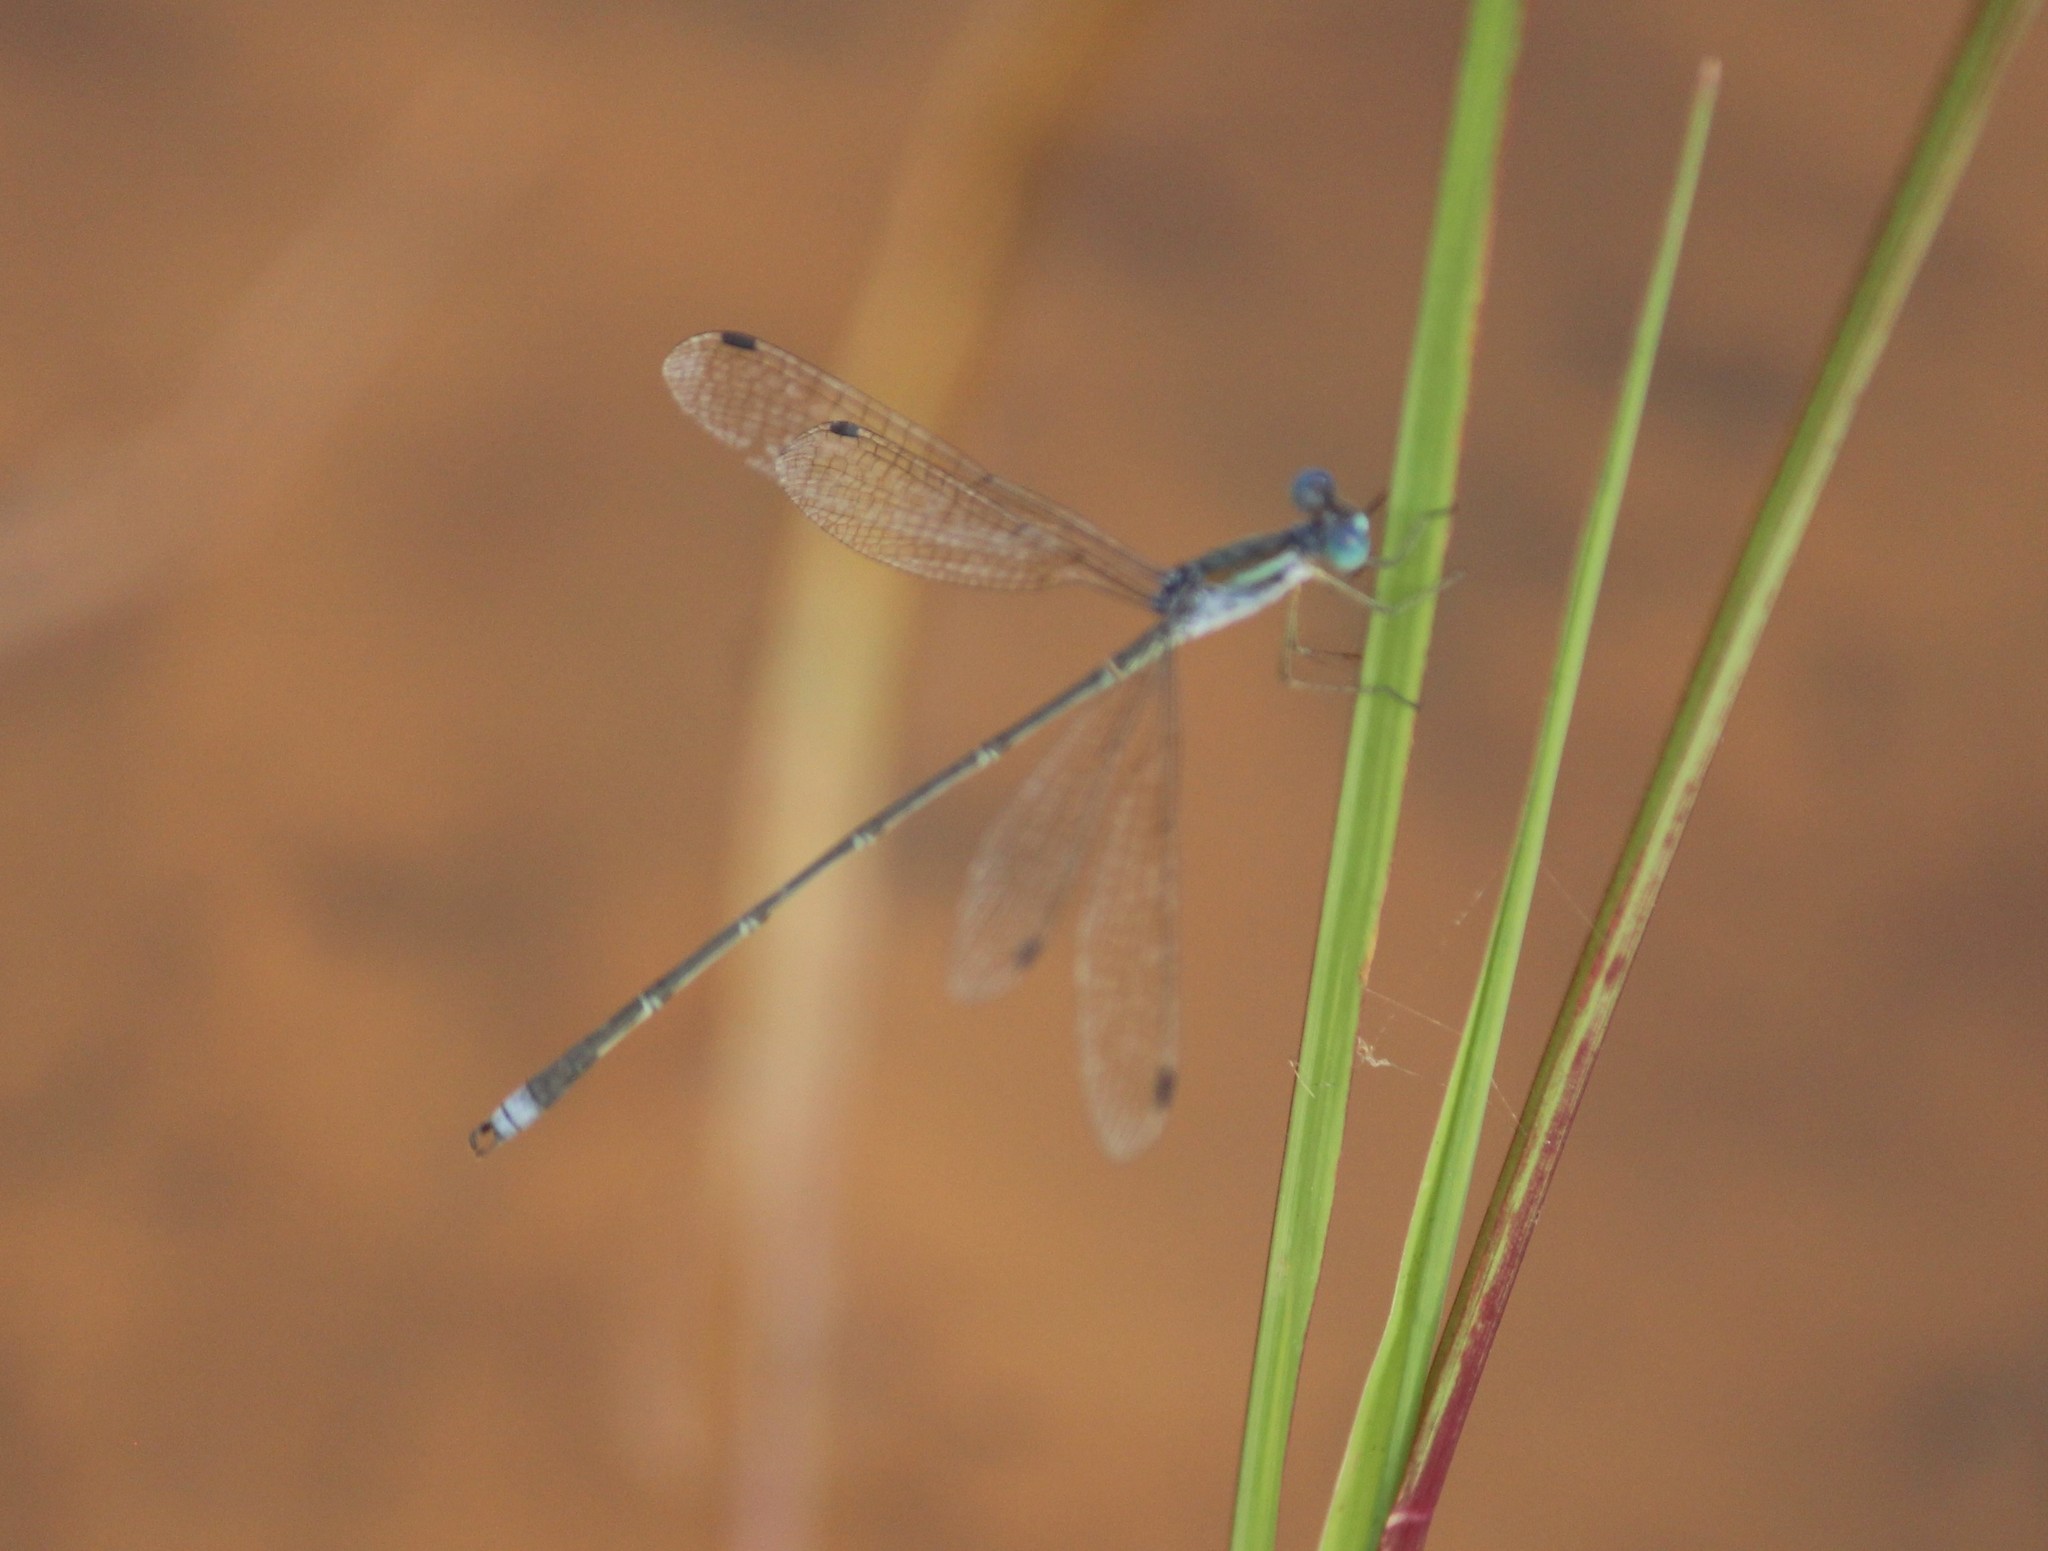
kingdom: Animalia
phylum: Arthropoda
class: Insecta
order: Odonata
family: Lestidae
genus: Lestes
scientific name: Lestes elatus
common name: Emerald spreadwing
